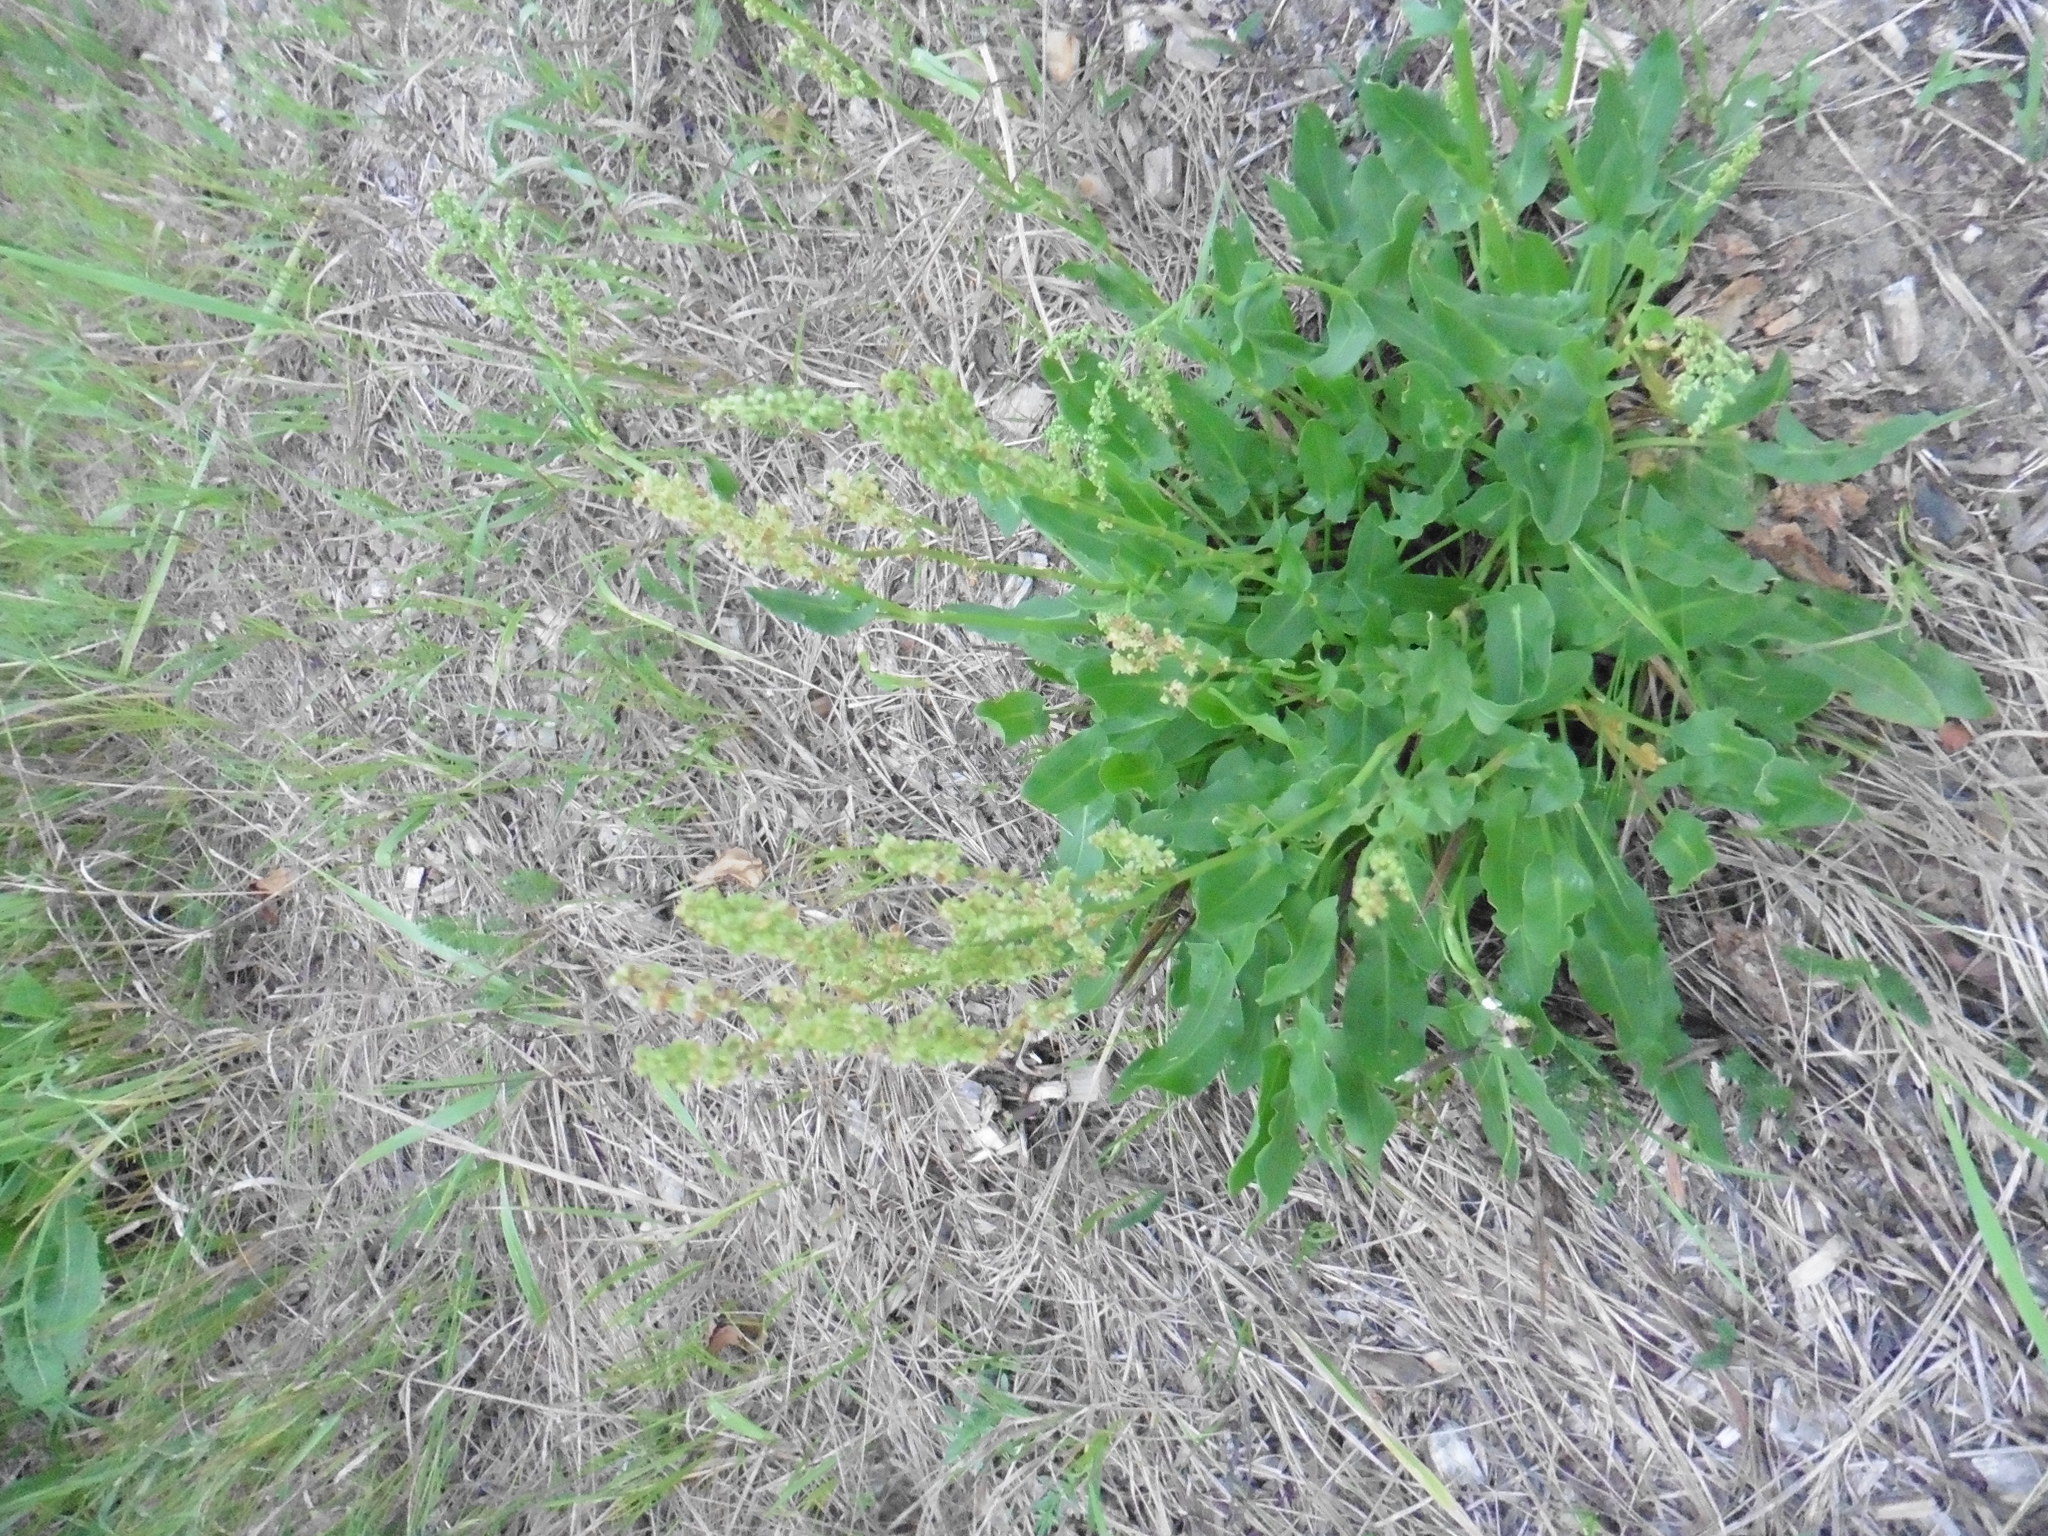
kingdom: Plantae
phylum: Tracheophyta
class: Magnoliopsida
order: Caryophyllales
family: Polygonaceae
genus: Rumex
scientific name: Rumex thyrsiflorus
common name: Garden sorrel
